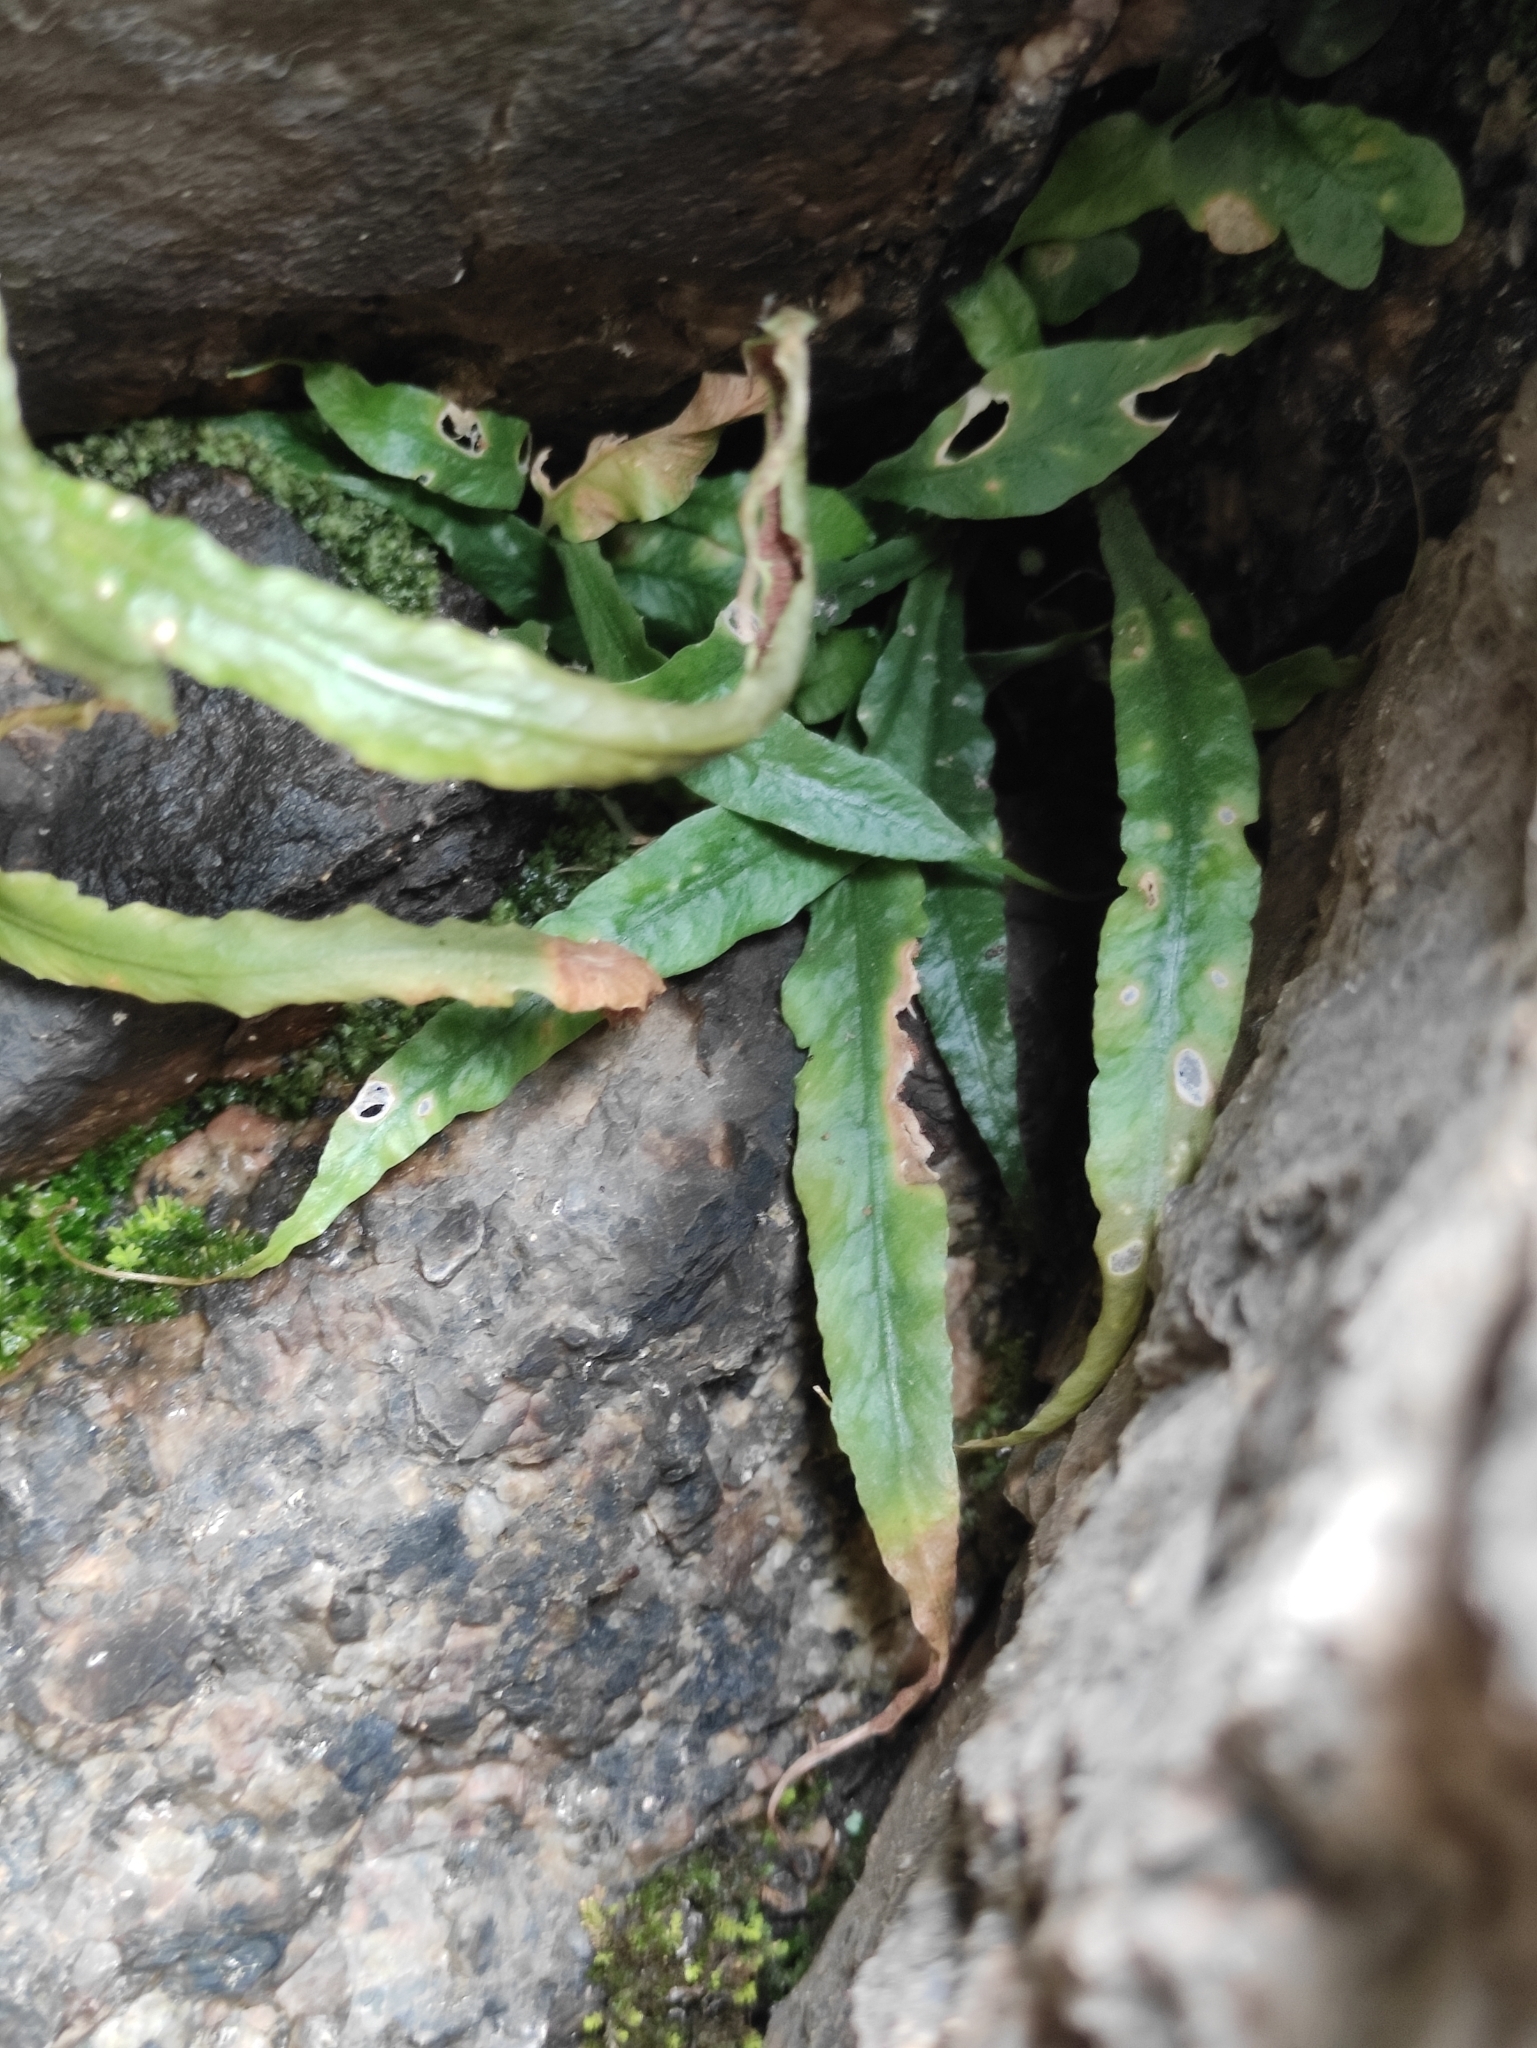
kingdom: Plantae
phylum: Tracheophyta
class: Polypodiopsida
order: Polypodiales
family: Aspleniaceae
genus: Asplenium
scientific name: Asplenium ruprechtii
